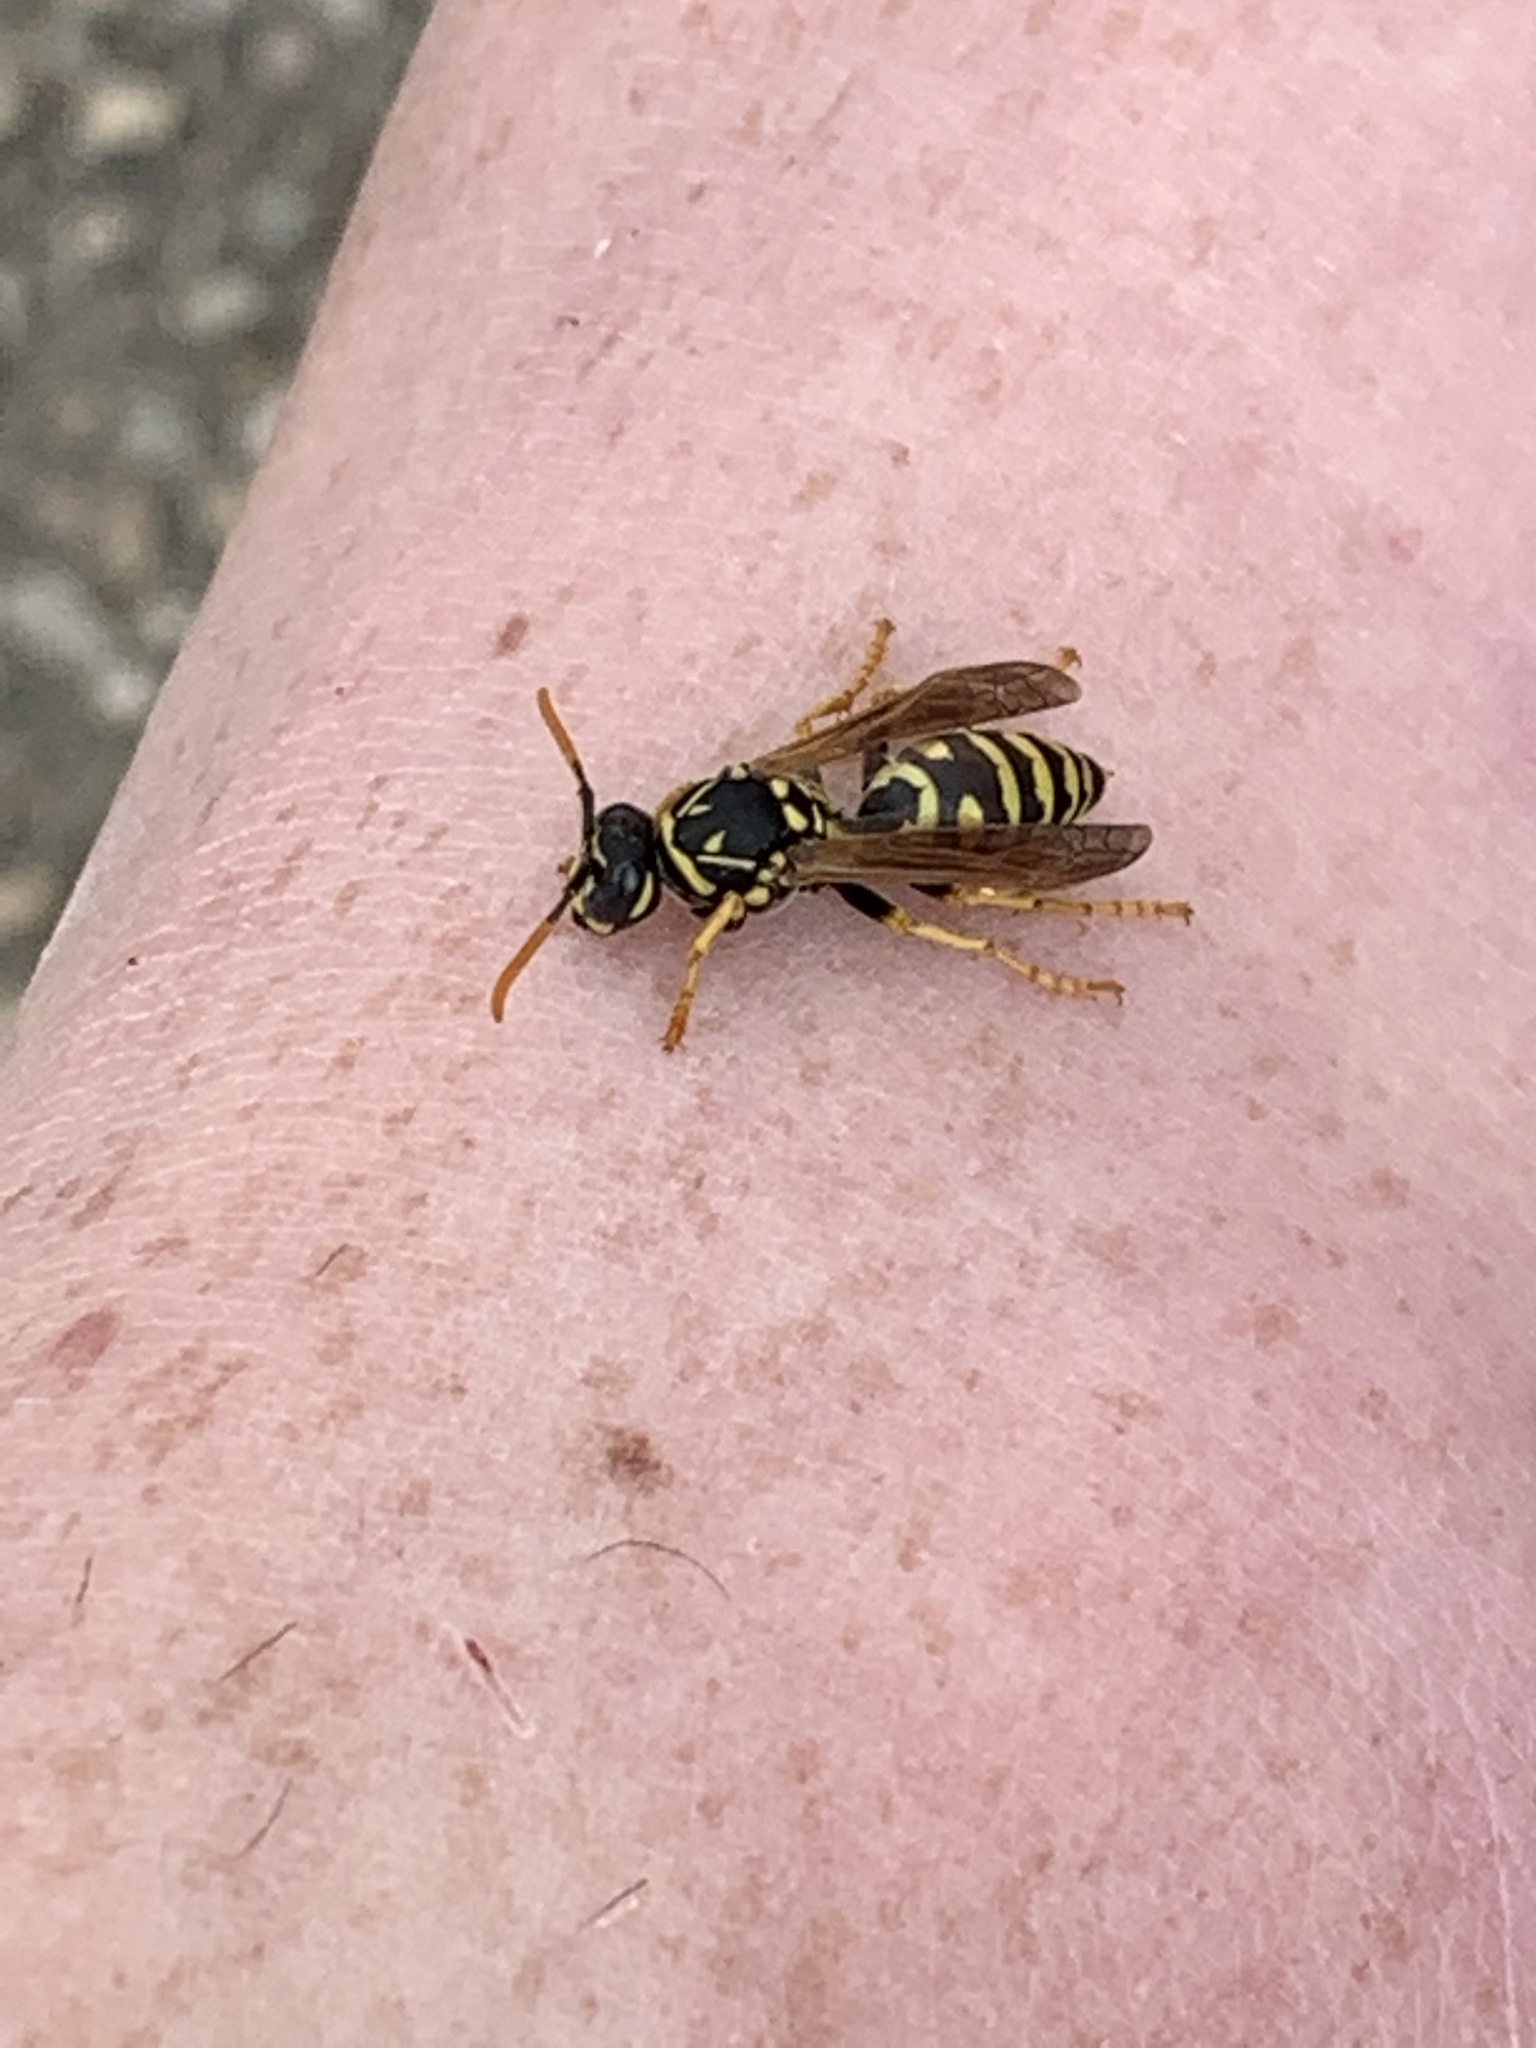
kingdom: Animalia
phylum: Arthropoda
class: Insecta
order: Hymenoptera
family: Eumenidae
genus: Polistes
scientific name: Polistes dominula
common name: Paper wasp
